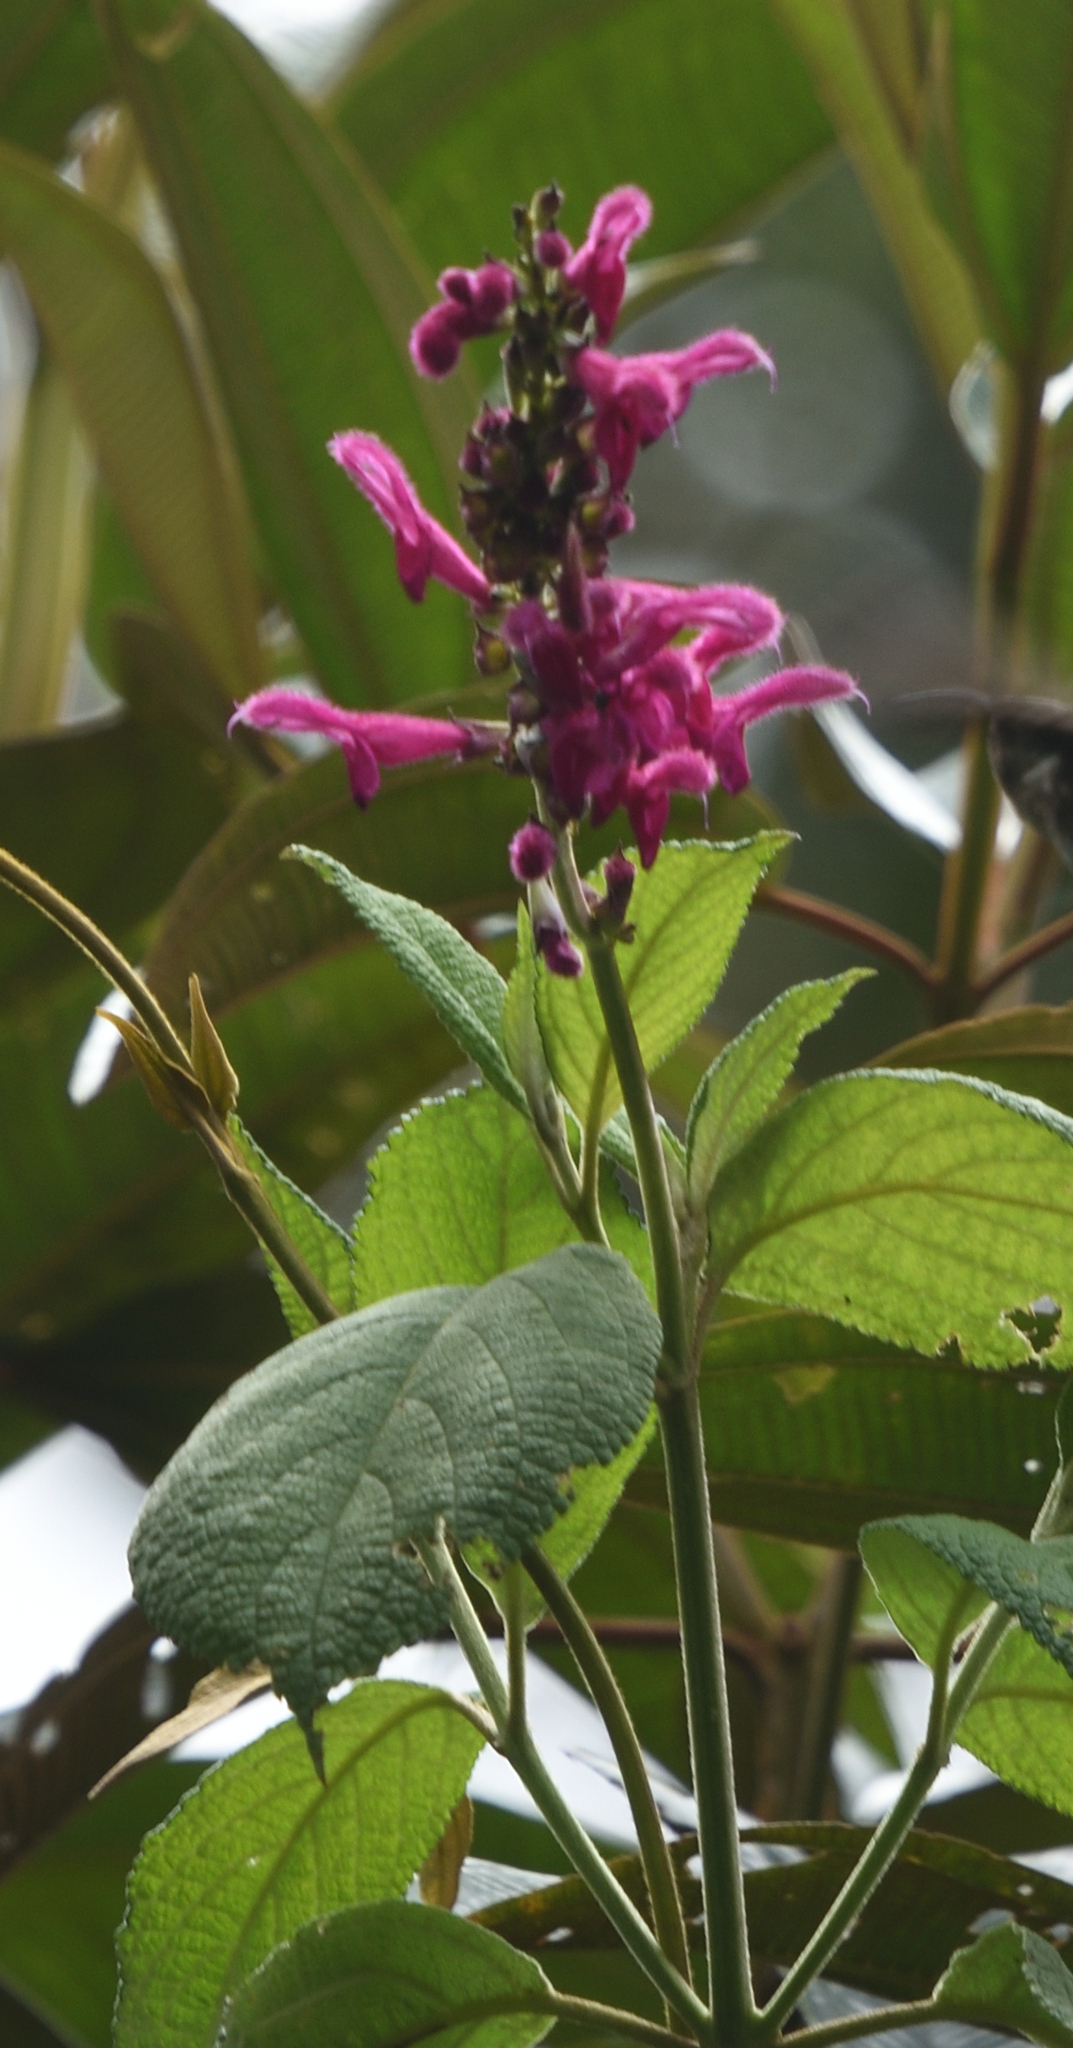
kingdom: Plantae
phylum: Tracheophyta
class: Magnoliopsida
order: Lamiales
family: Lamiaceae
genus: Salvia
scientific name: Salvia tortuosa
